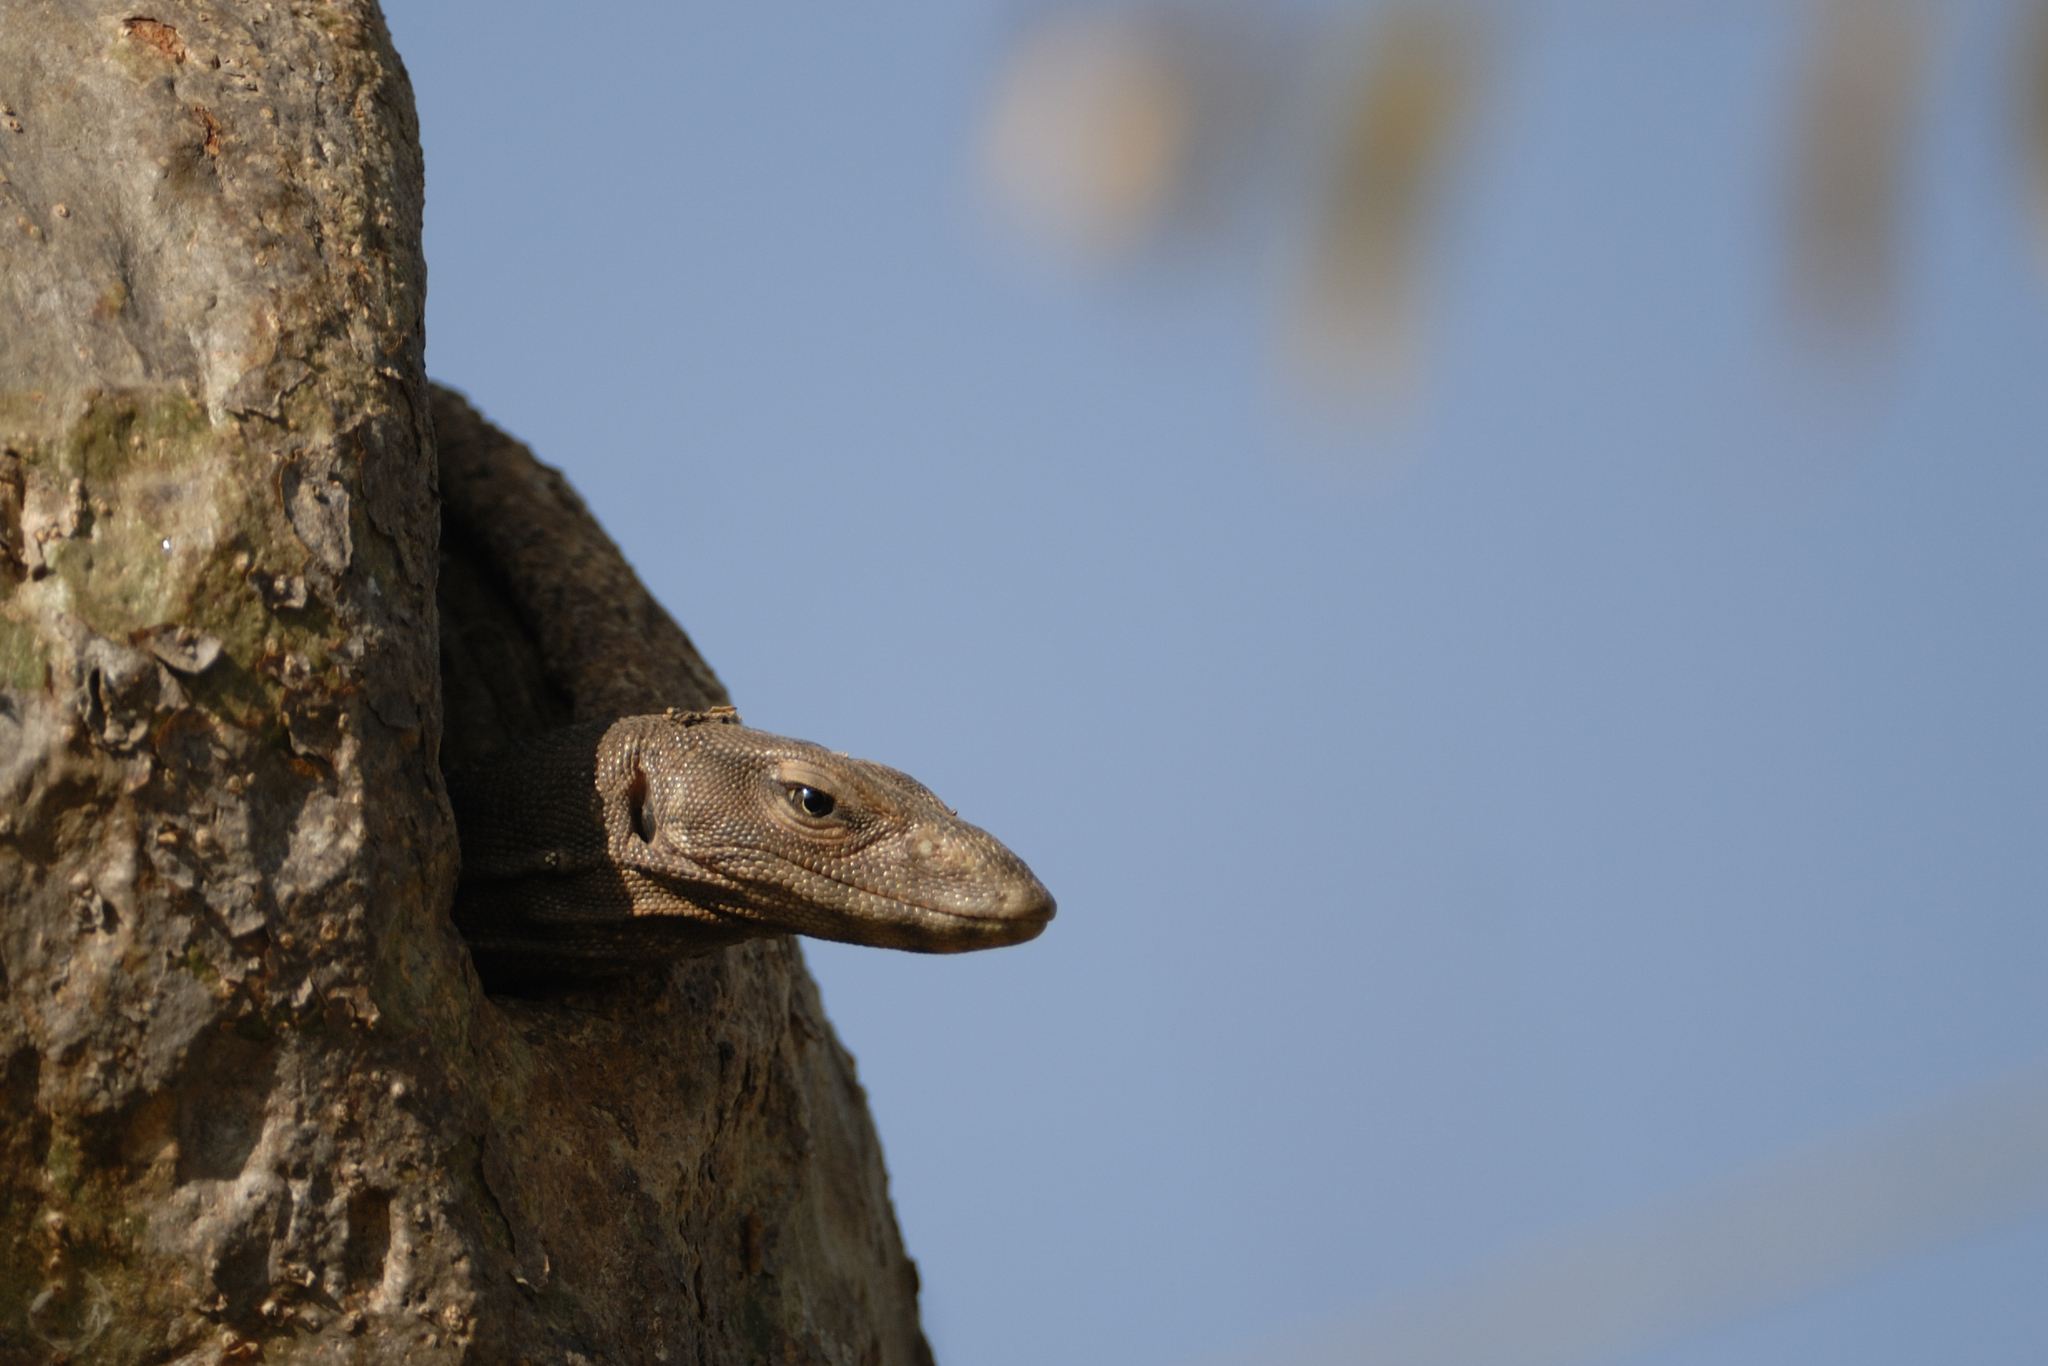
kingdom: Animalia
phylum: Chordata
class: Squamata
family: Varanidae
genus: Varanus
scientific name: Varanus bengalensis
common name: Bengal monitor
